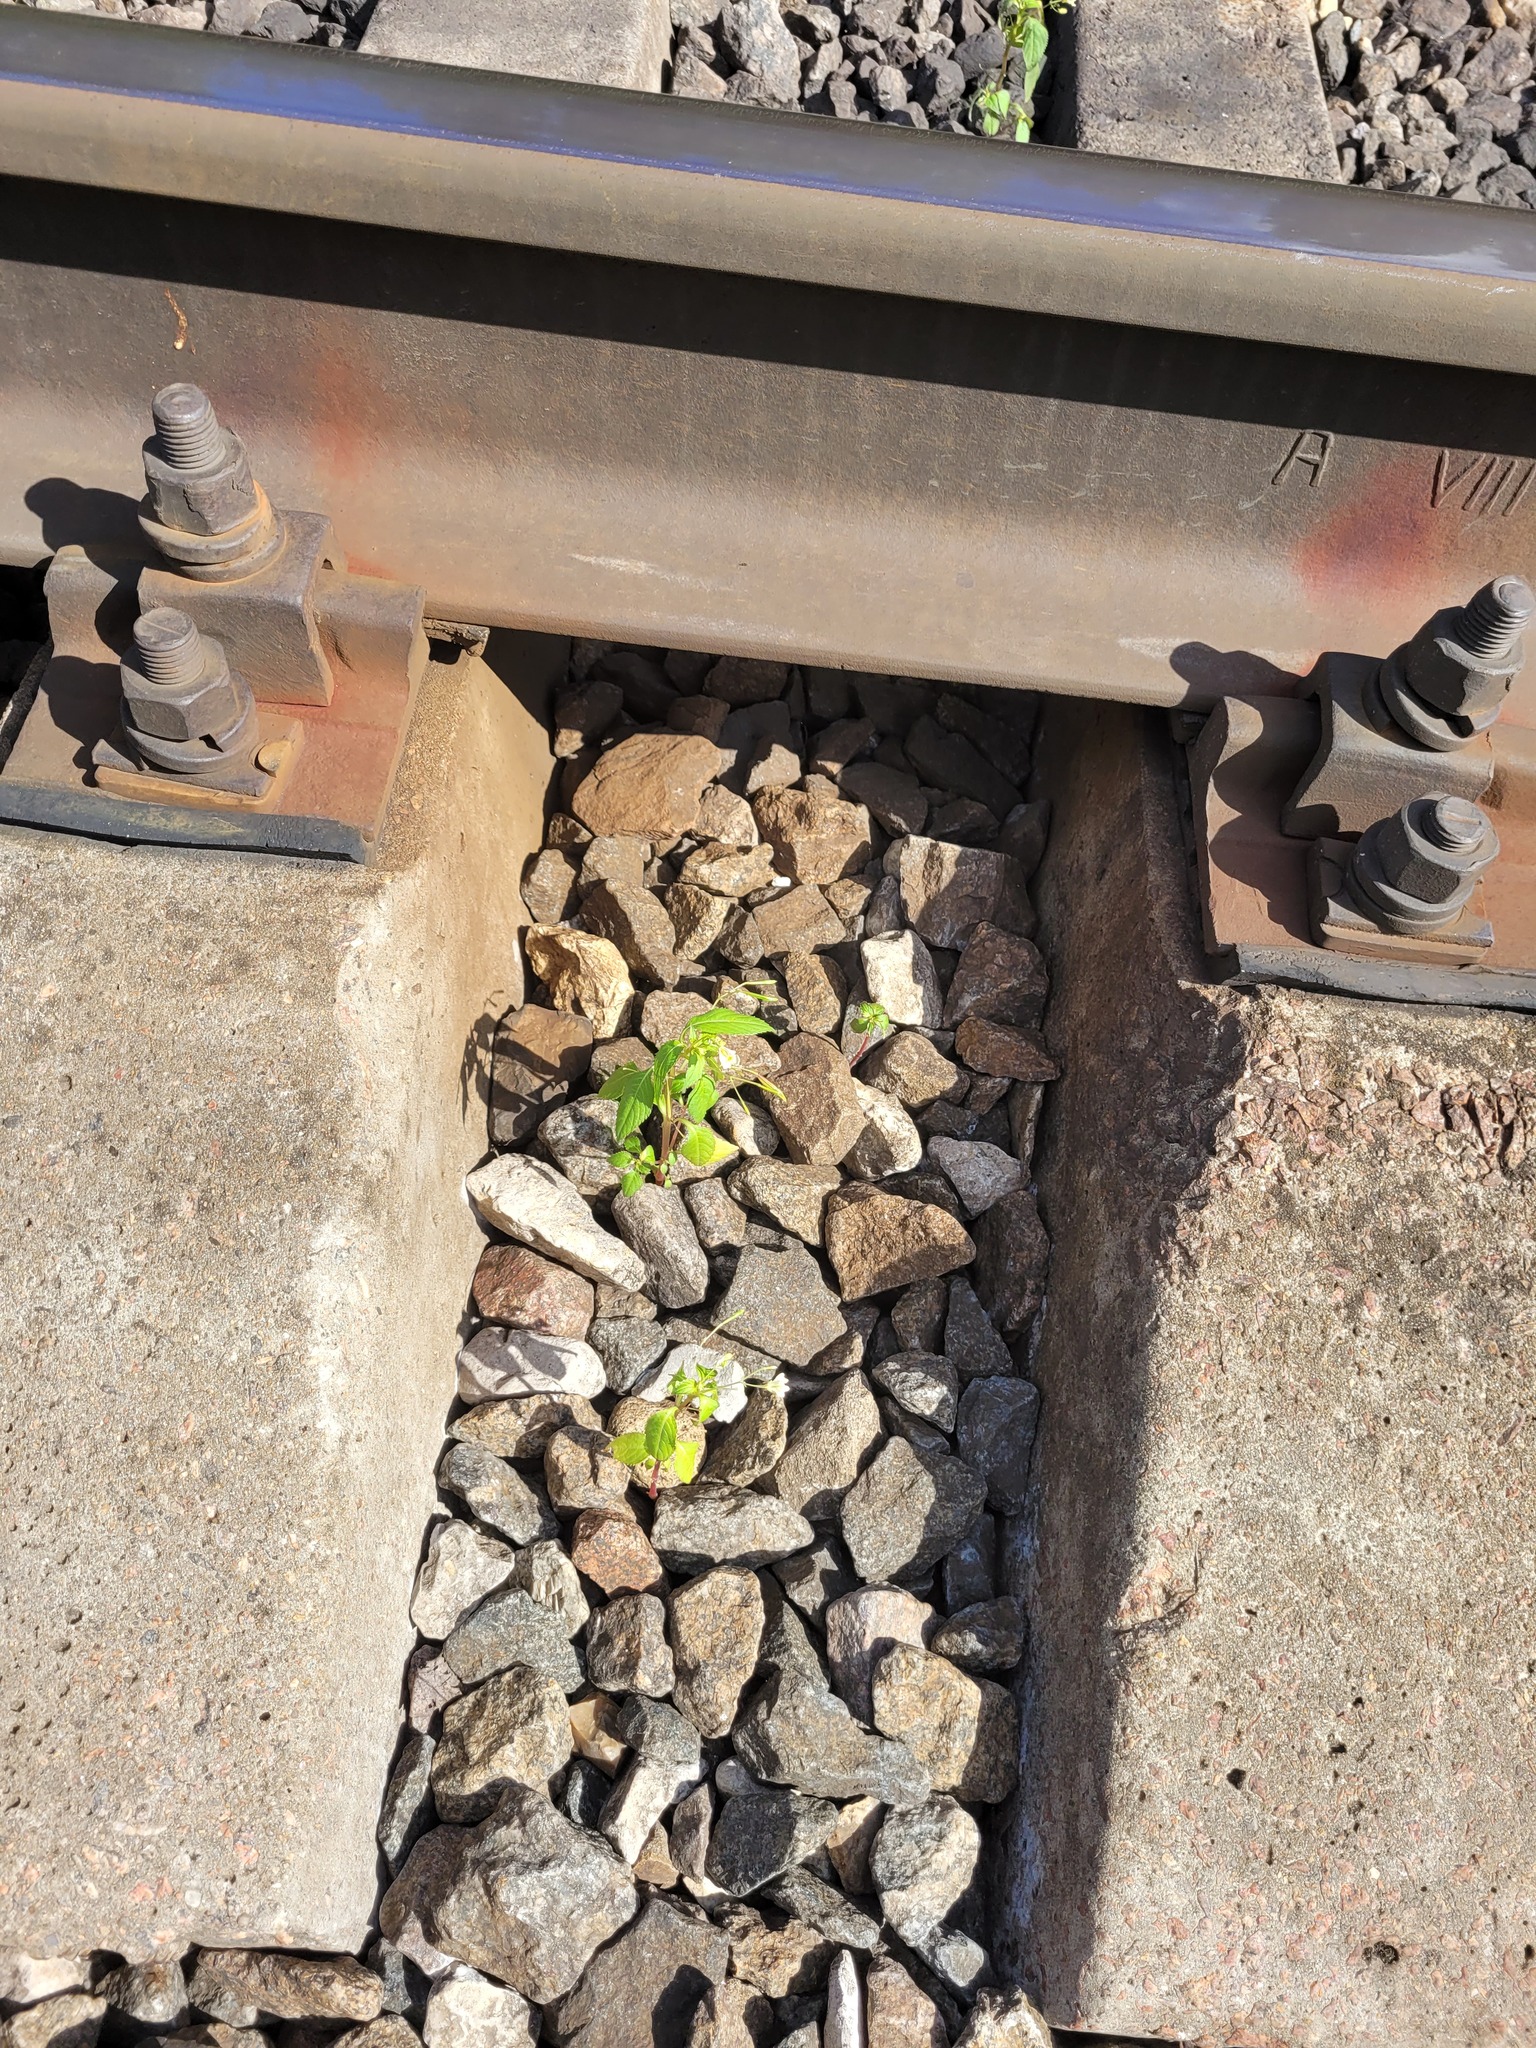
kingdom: Plantae
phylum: Tracheophyta
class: Magnoliopsida
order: Ericales
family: Balsaminaceae
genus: Impatiens
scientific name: Impatiens parviflora
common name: Small balsam
